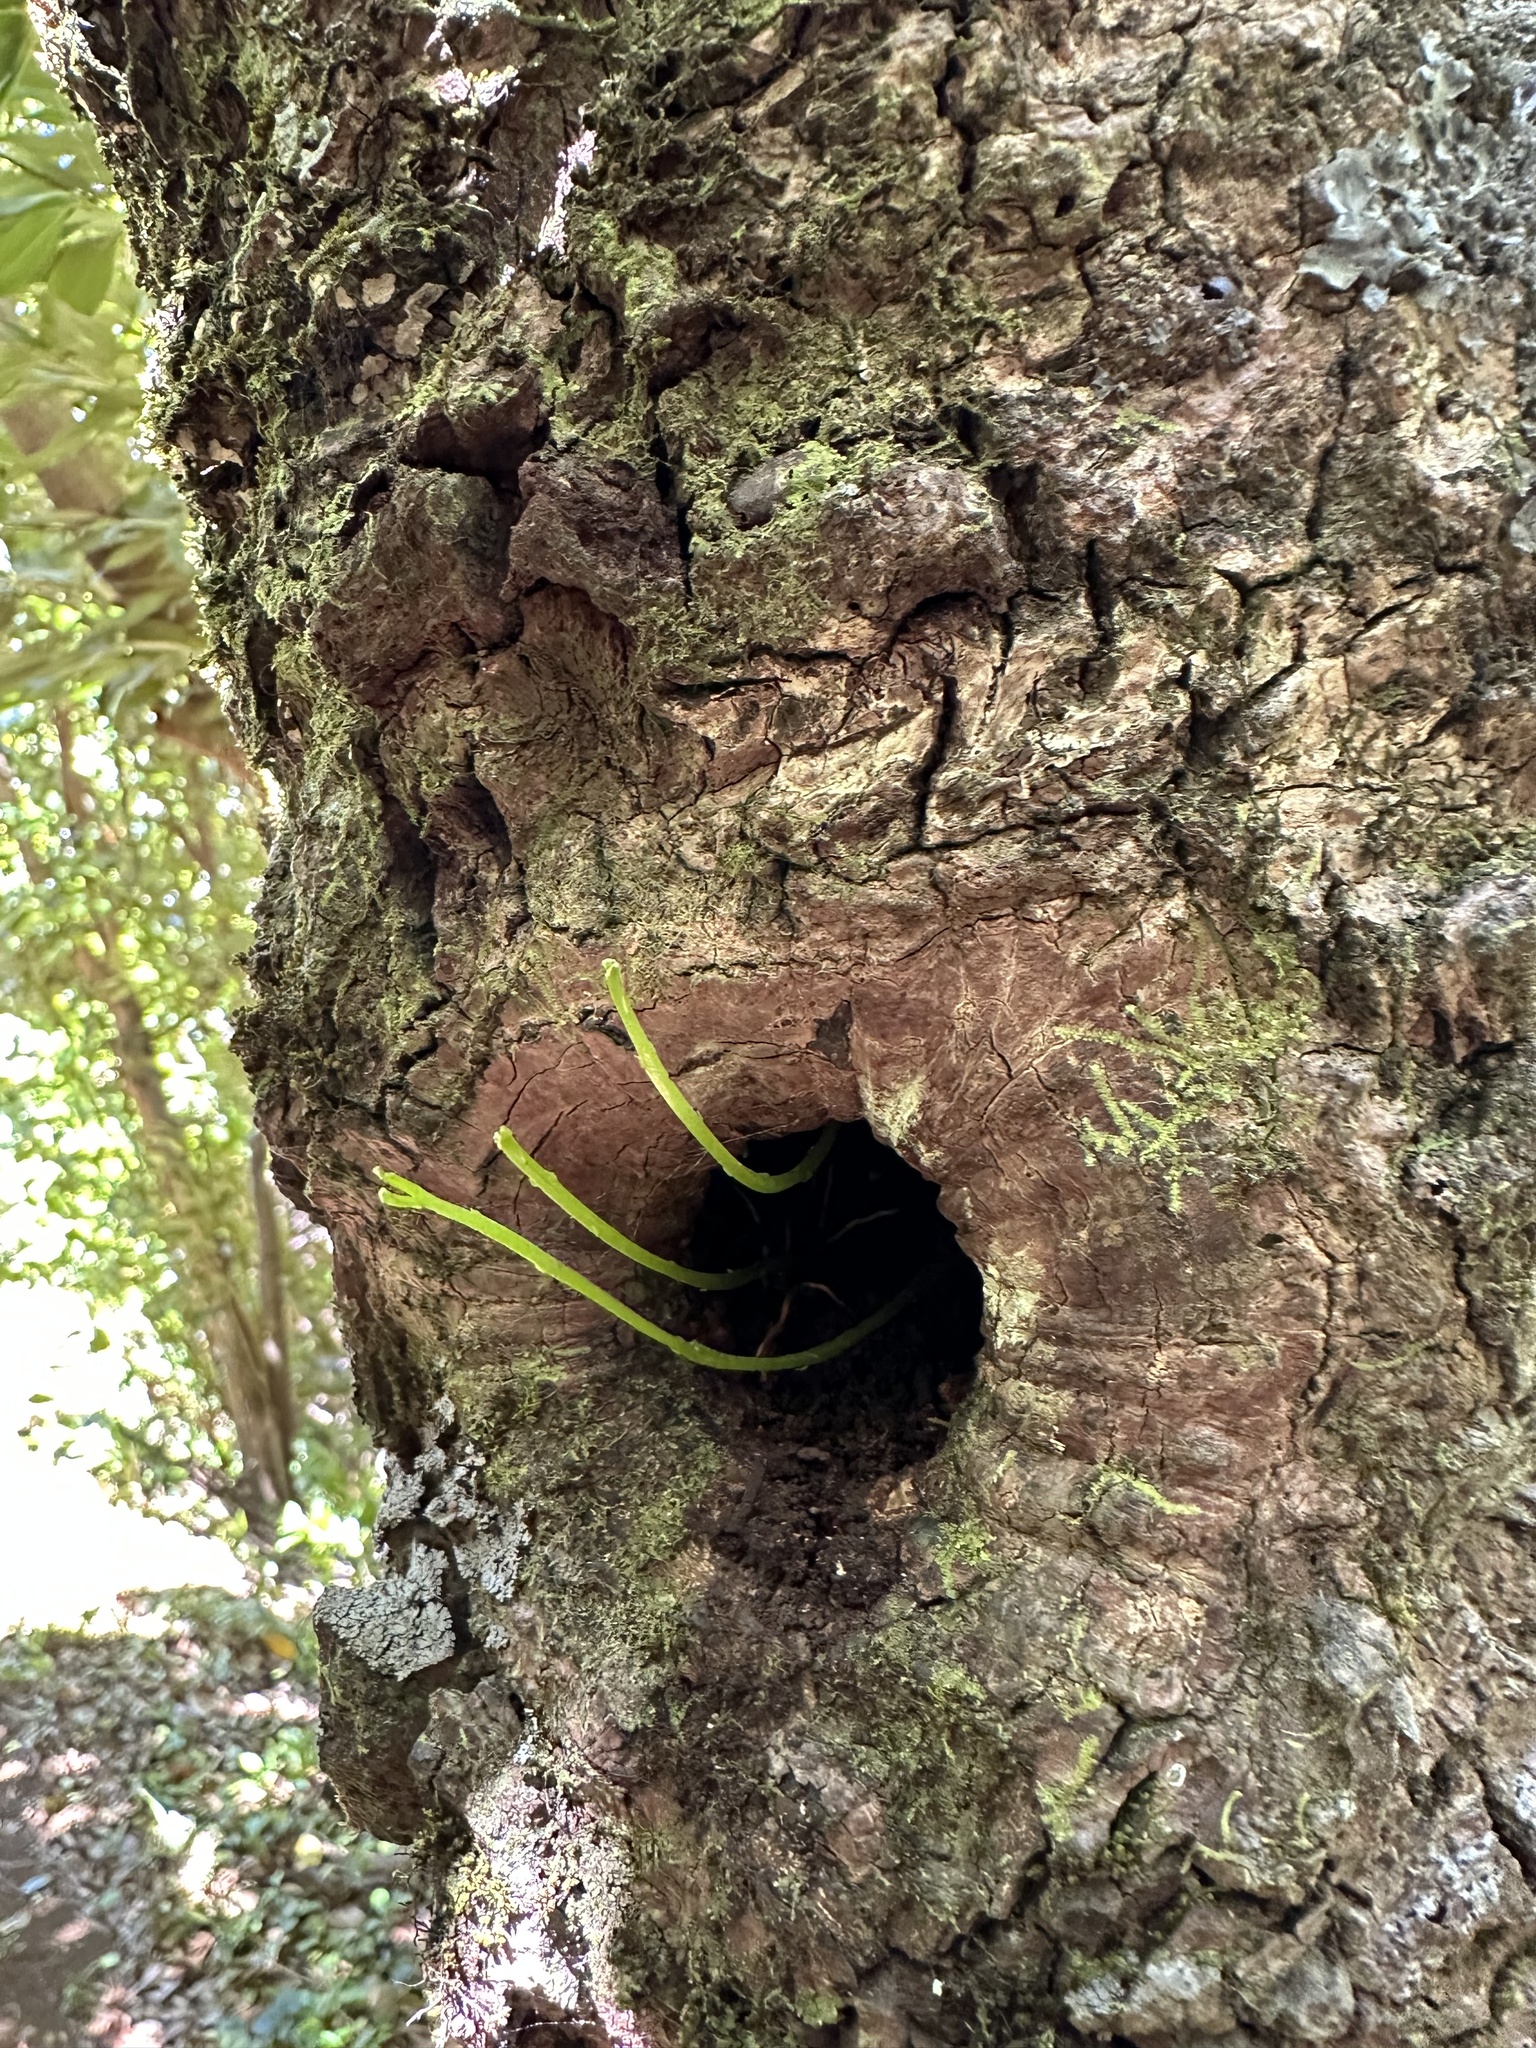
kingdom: Plantae
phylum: Tracheophyta
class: Polypodiopsida
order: Psilotales
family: Psilotaceae
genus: Psilotum
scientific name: Psilotum nudum
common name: Skeleton fork fern
